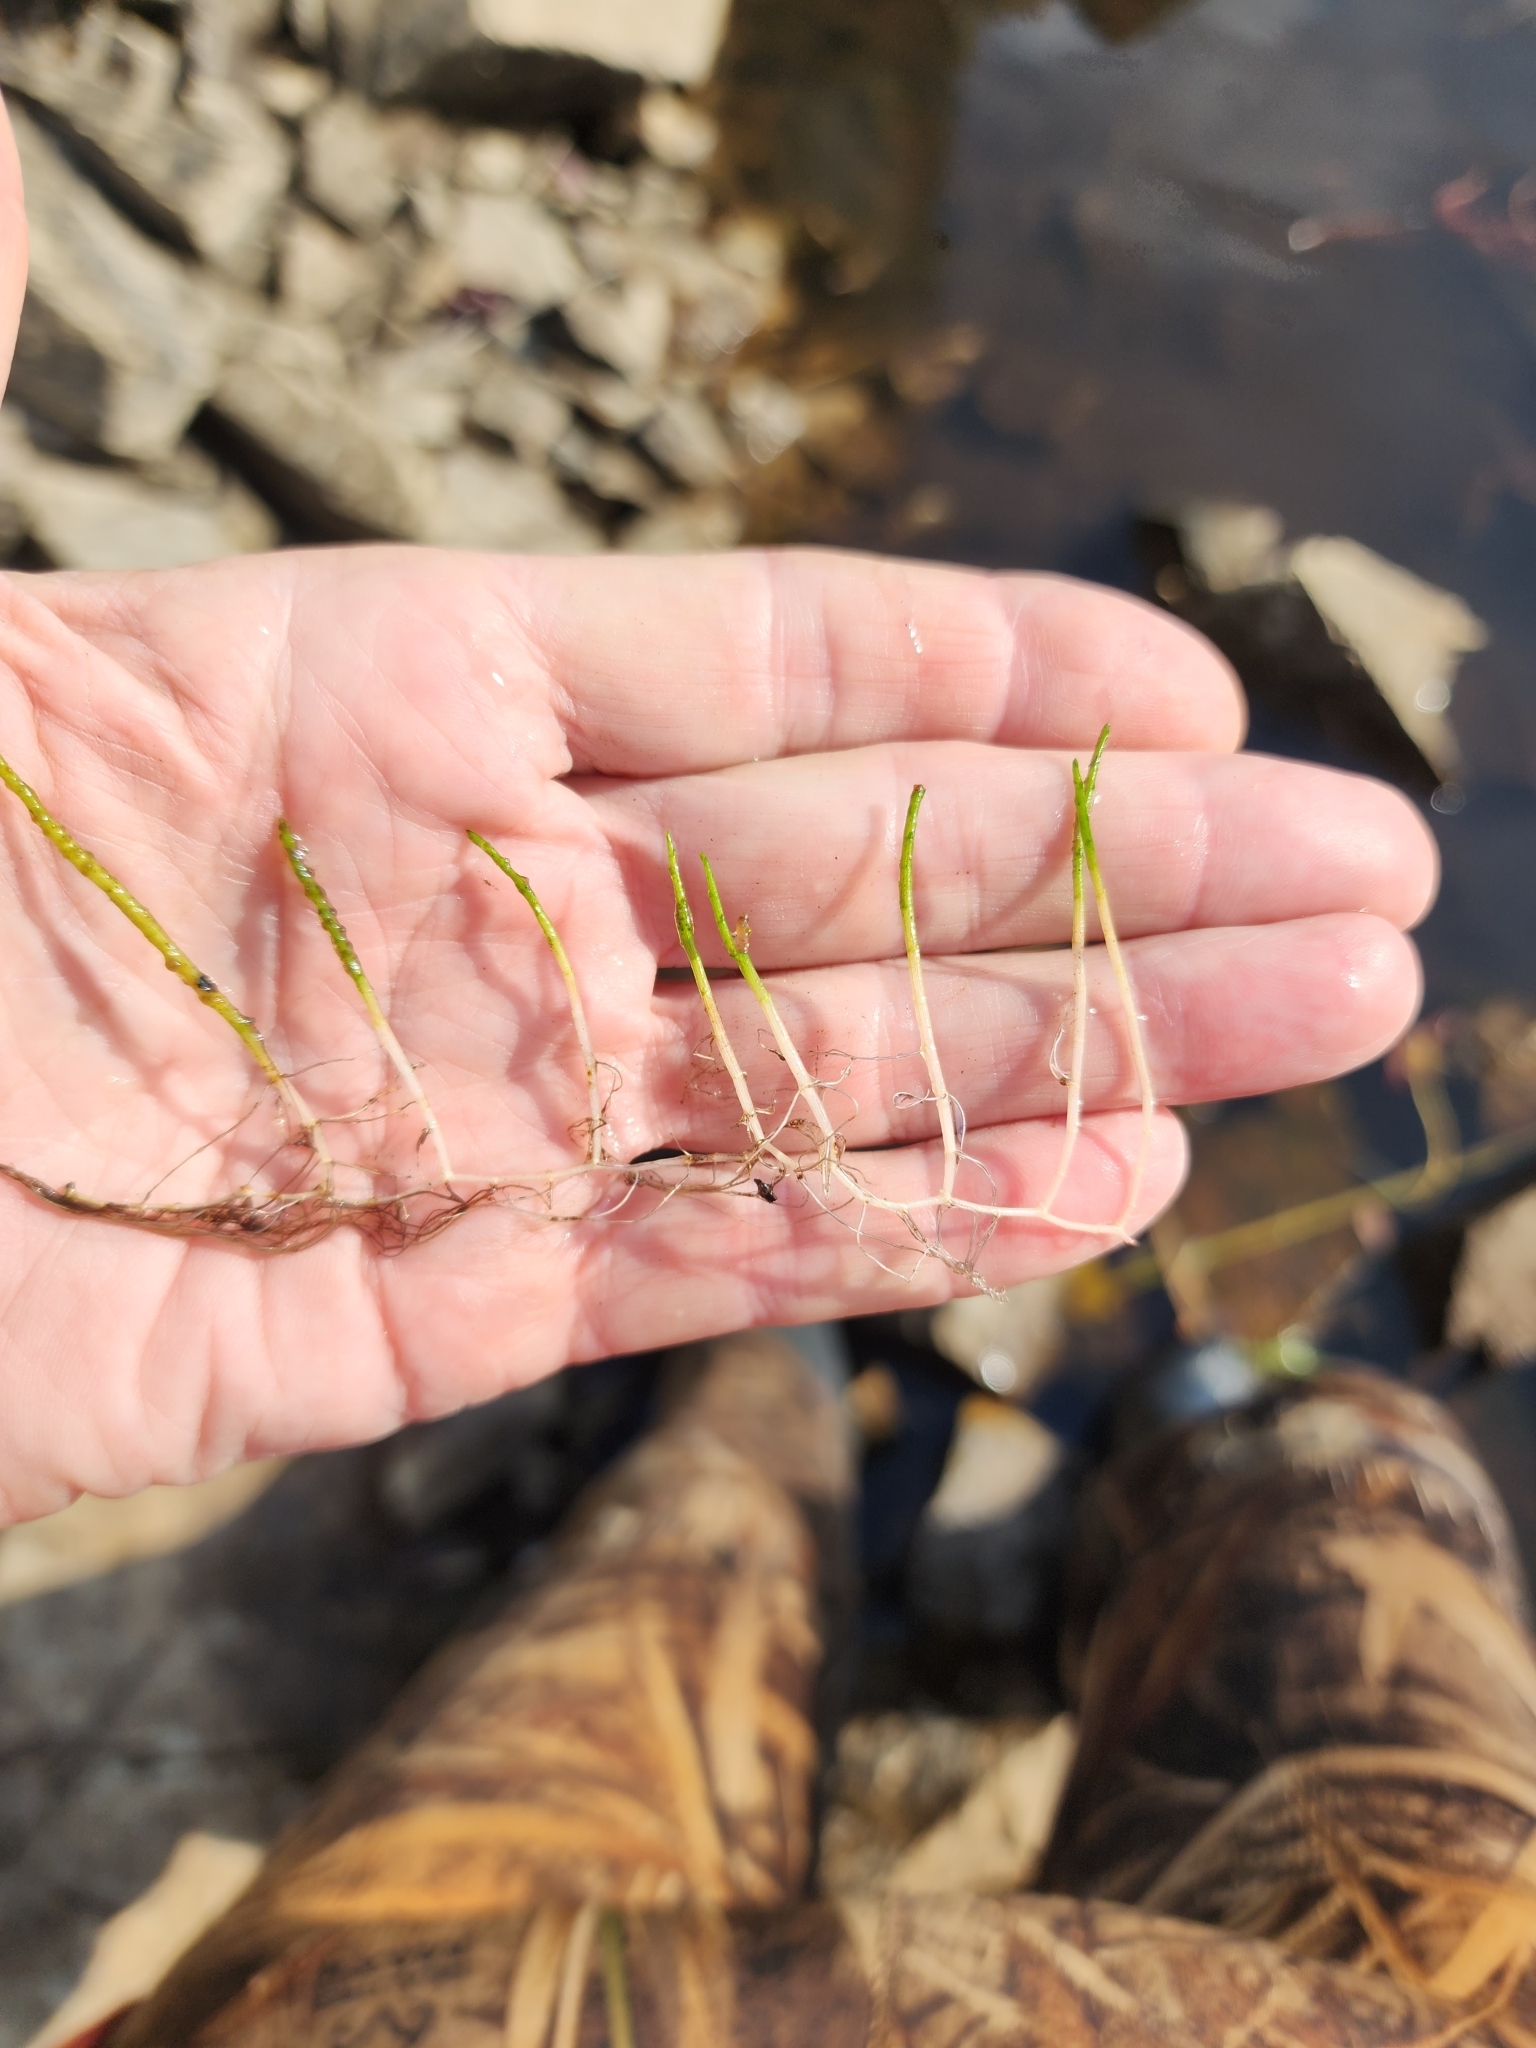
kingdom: Plantae
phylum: Tracheophyta
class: Magnoliopsida
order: Saxifragales
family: Haloragaceae
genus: Myriophyllum
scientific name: Myriophyllum tenellum
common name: Slender water-milfoil
